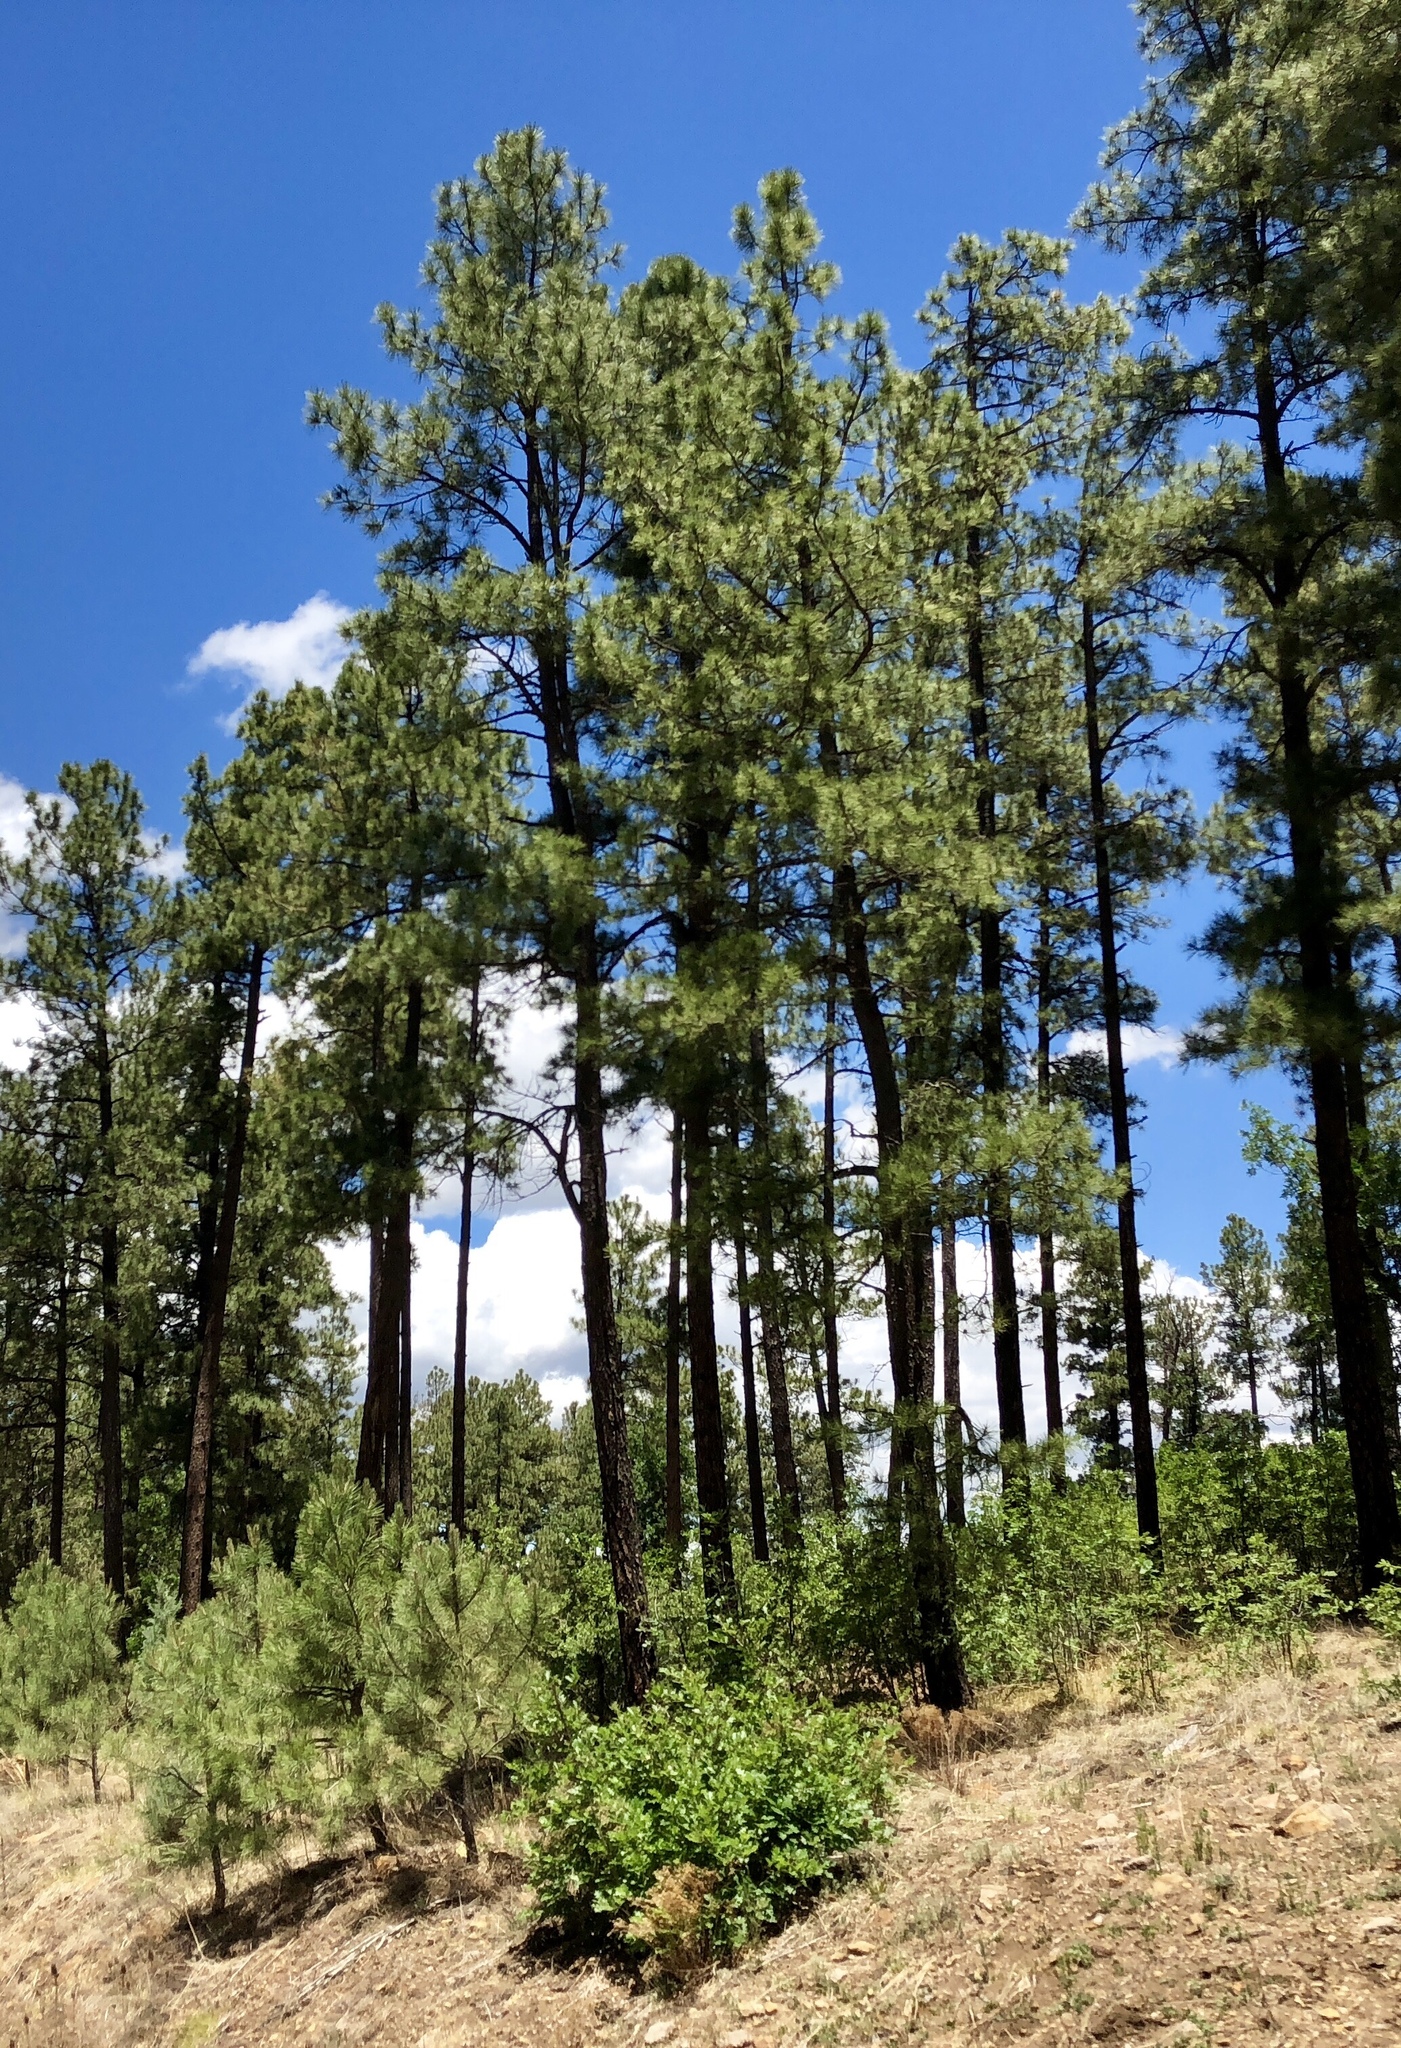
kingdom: Plantae
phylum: Tracheophyta
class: Pinopsida
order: Pinales
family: Pinaceae
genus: Pinus
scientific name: Pinus ponderosa
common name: Western yellow-pine
